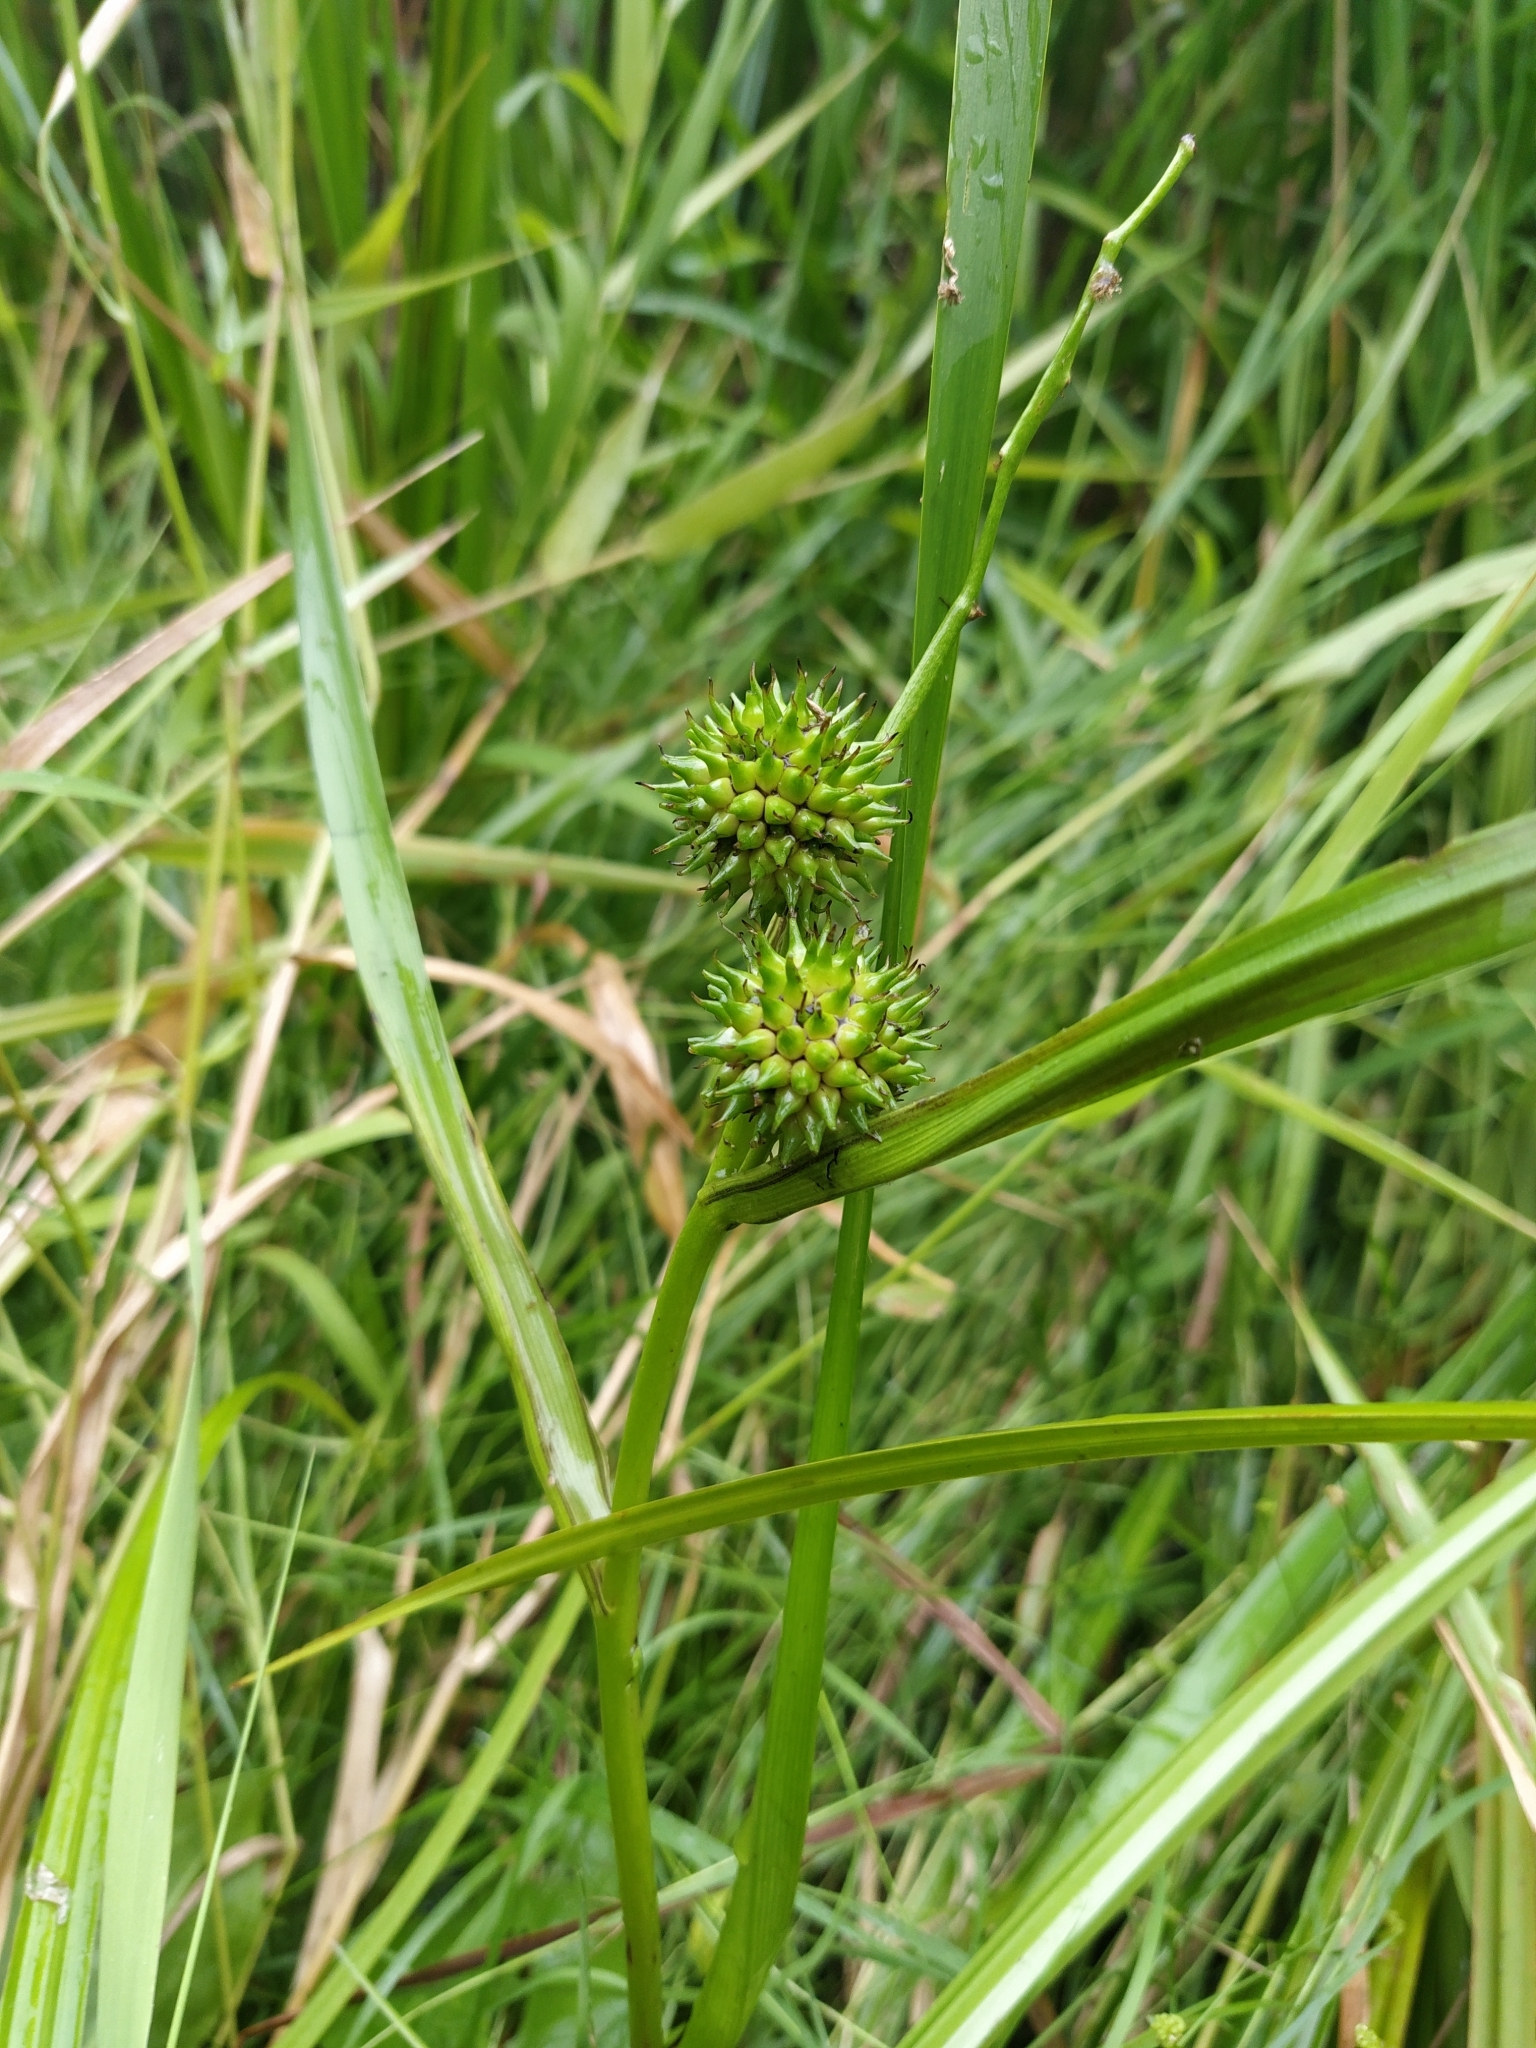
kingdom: Plantae
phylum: Tracheophyta
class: Liliopsida
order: Poales
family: Typhaceae
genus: Sparganium
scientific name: Sparganium erectum
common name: Branched bur-reed
